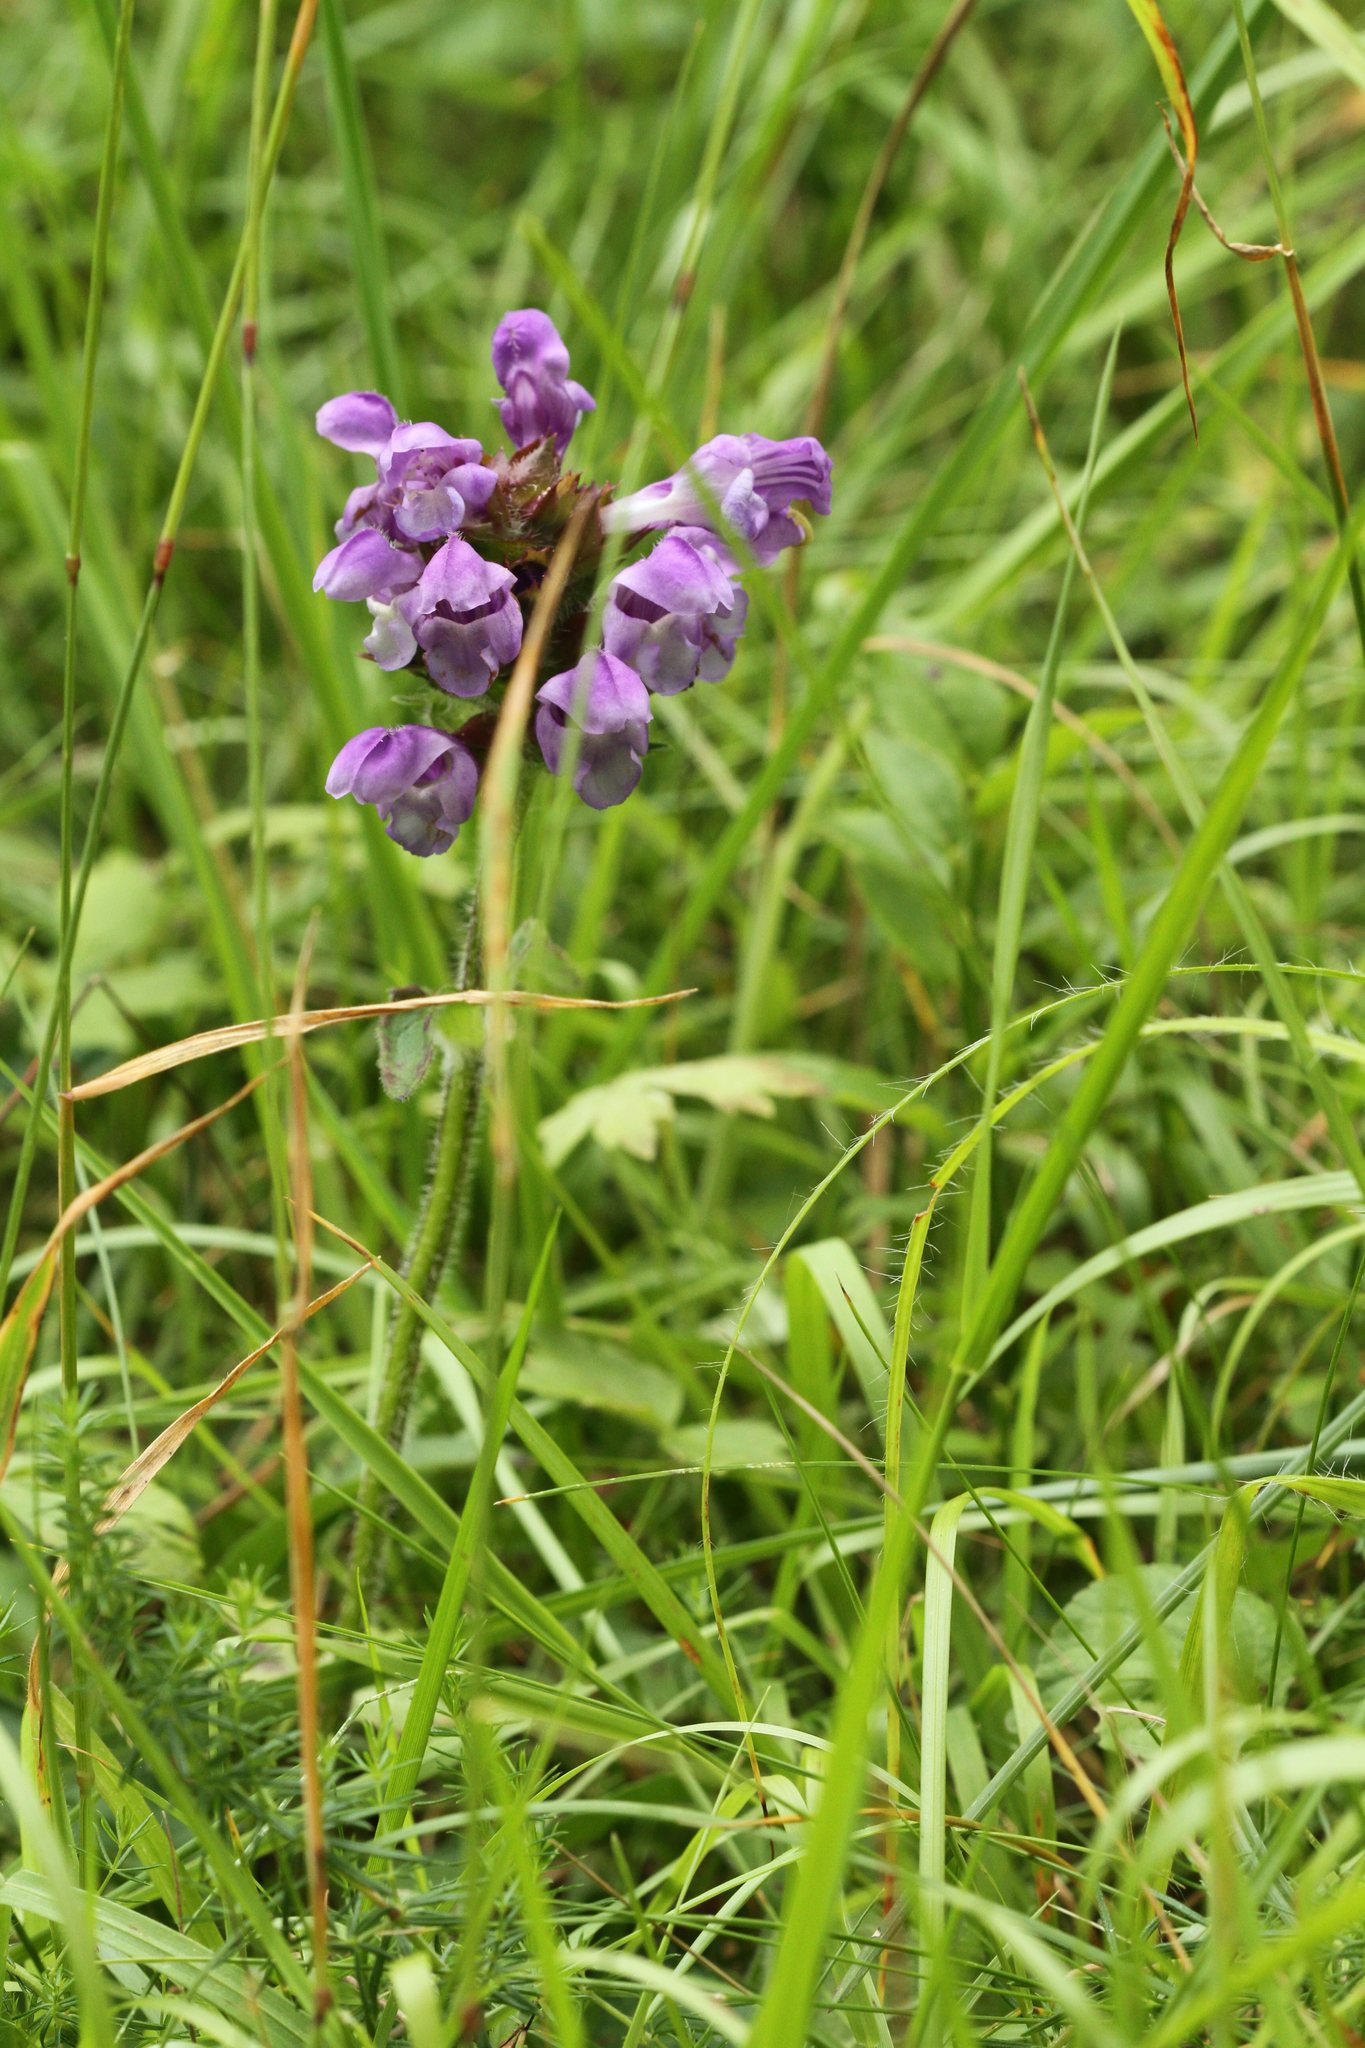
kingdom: Plantae
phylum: Tracheophyta
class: Magnoliopsida
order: Lamiales
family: Lamiaceae
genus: Prunella
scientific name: Prunella grandiflora
